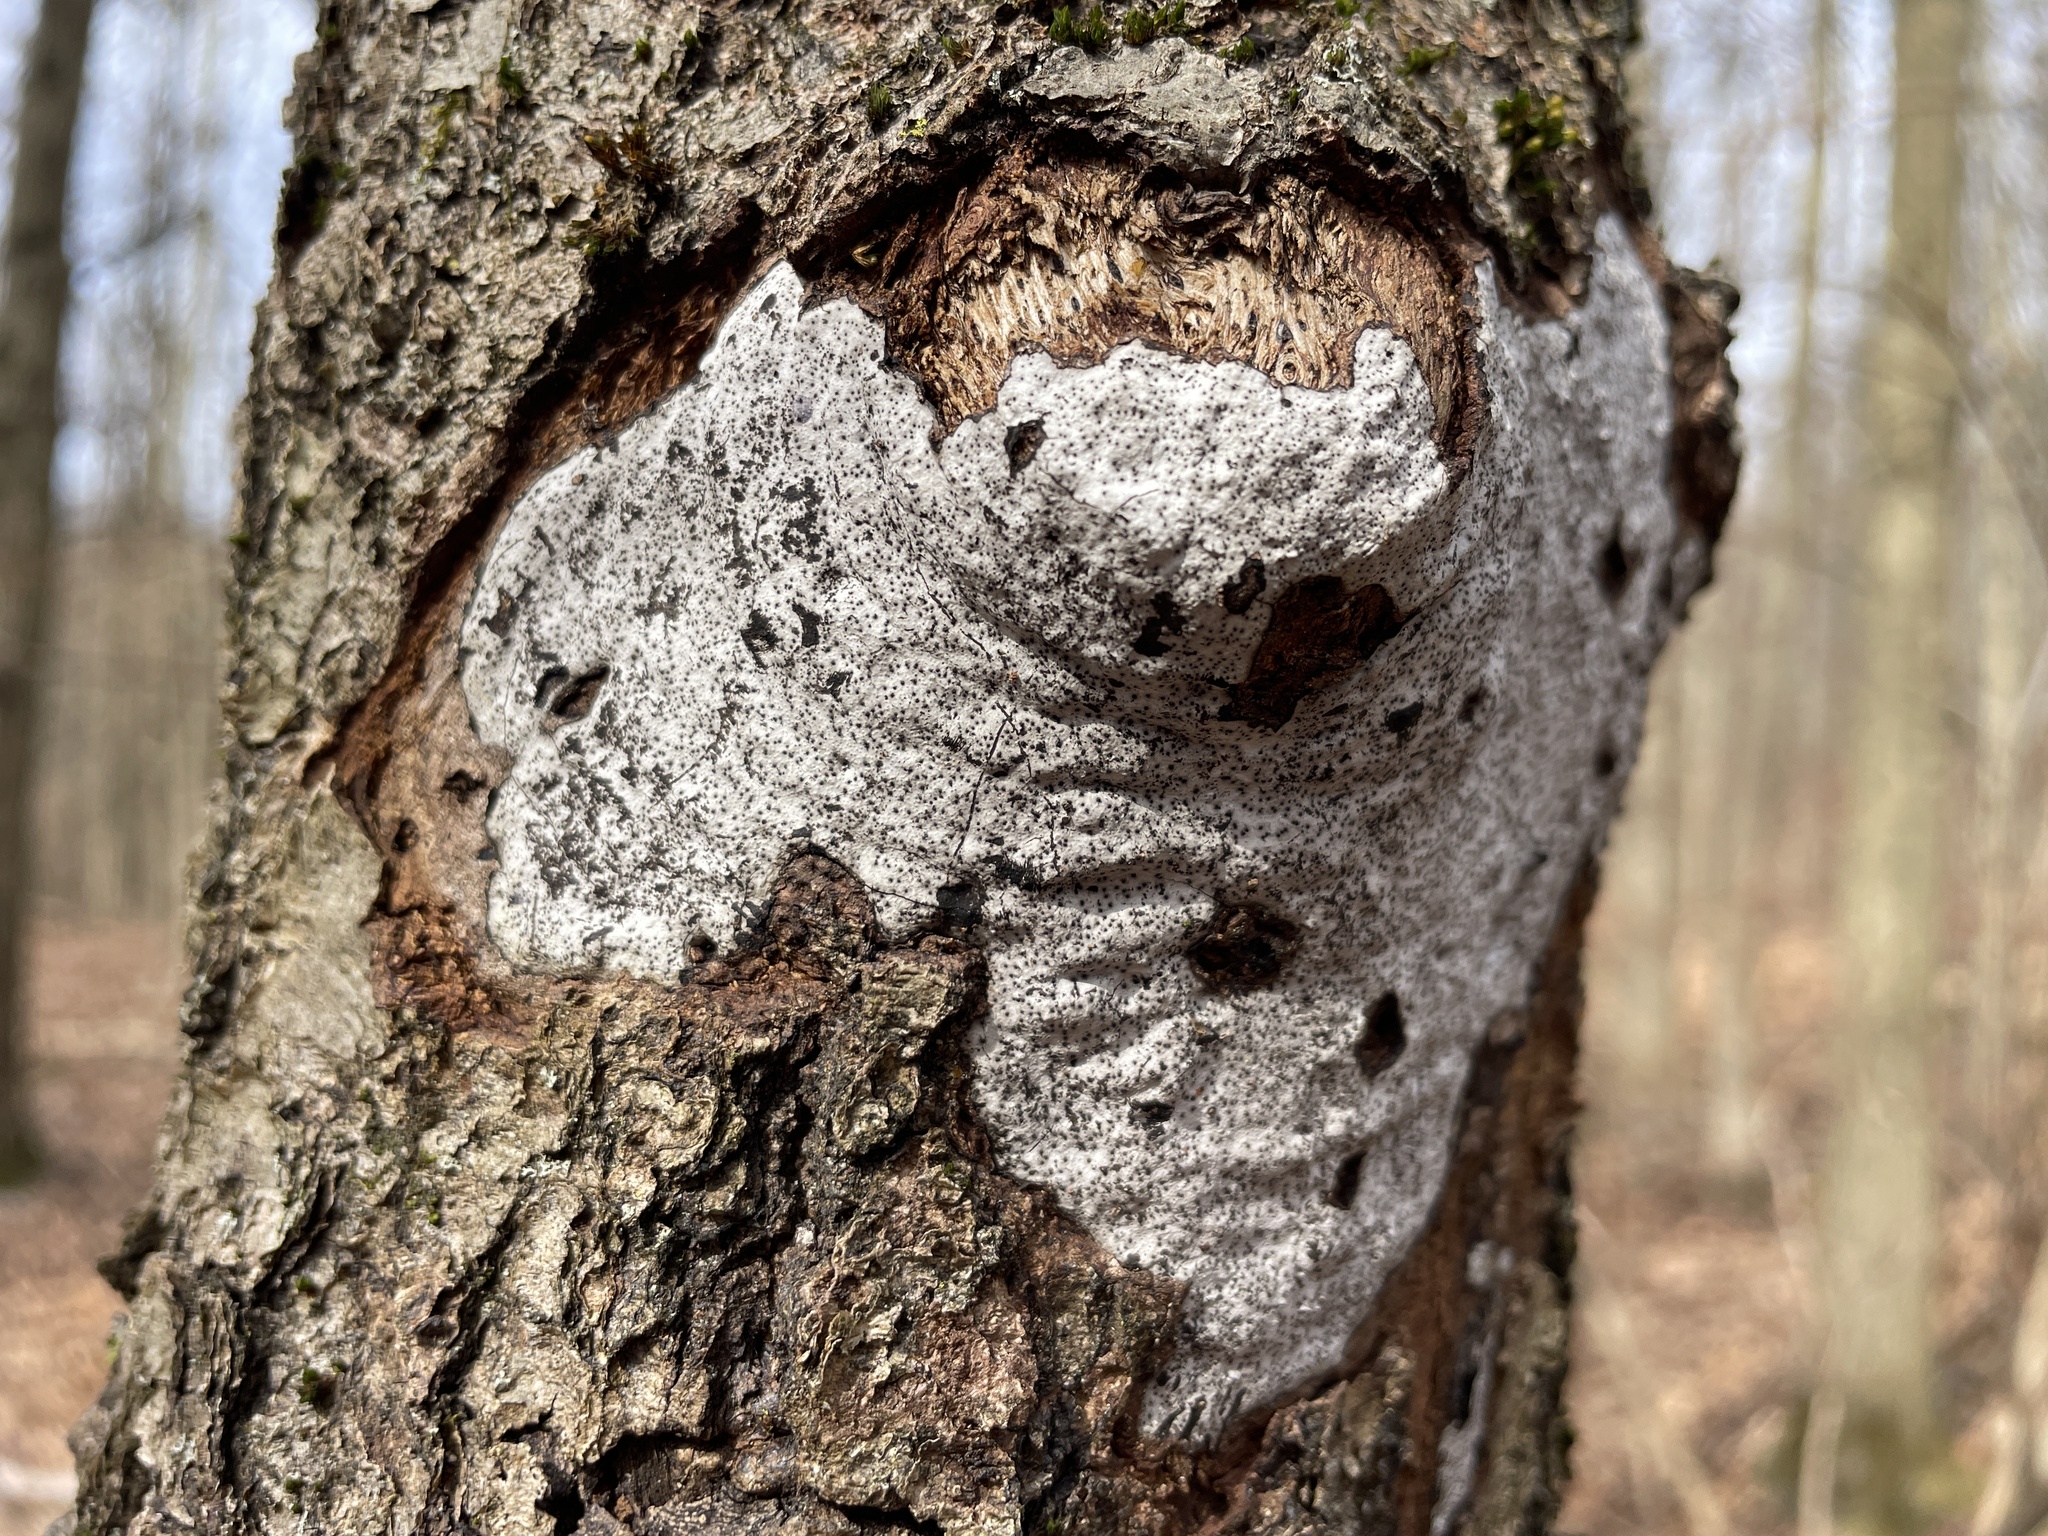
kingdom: Fungi
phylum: Ascomycota
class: Sordariomycetes
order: Xylariales
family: Graphostromataceae
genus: Biscogniauxia
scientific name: Biscogniauxia atropunctata
